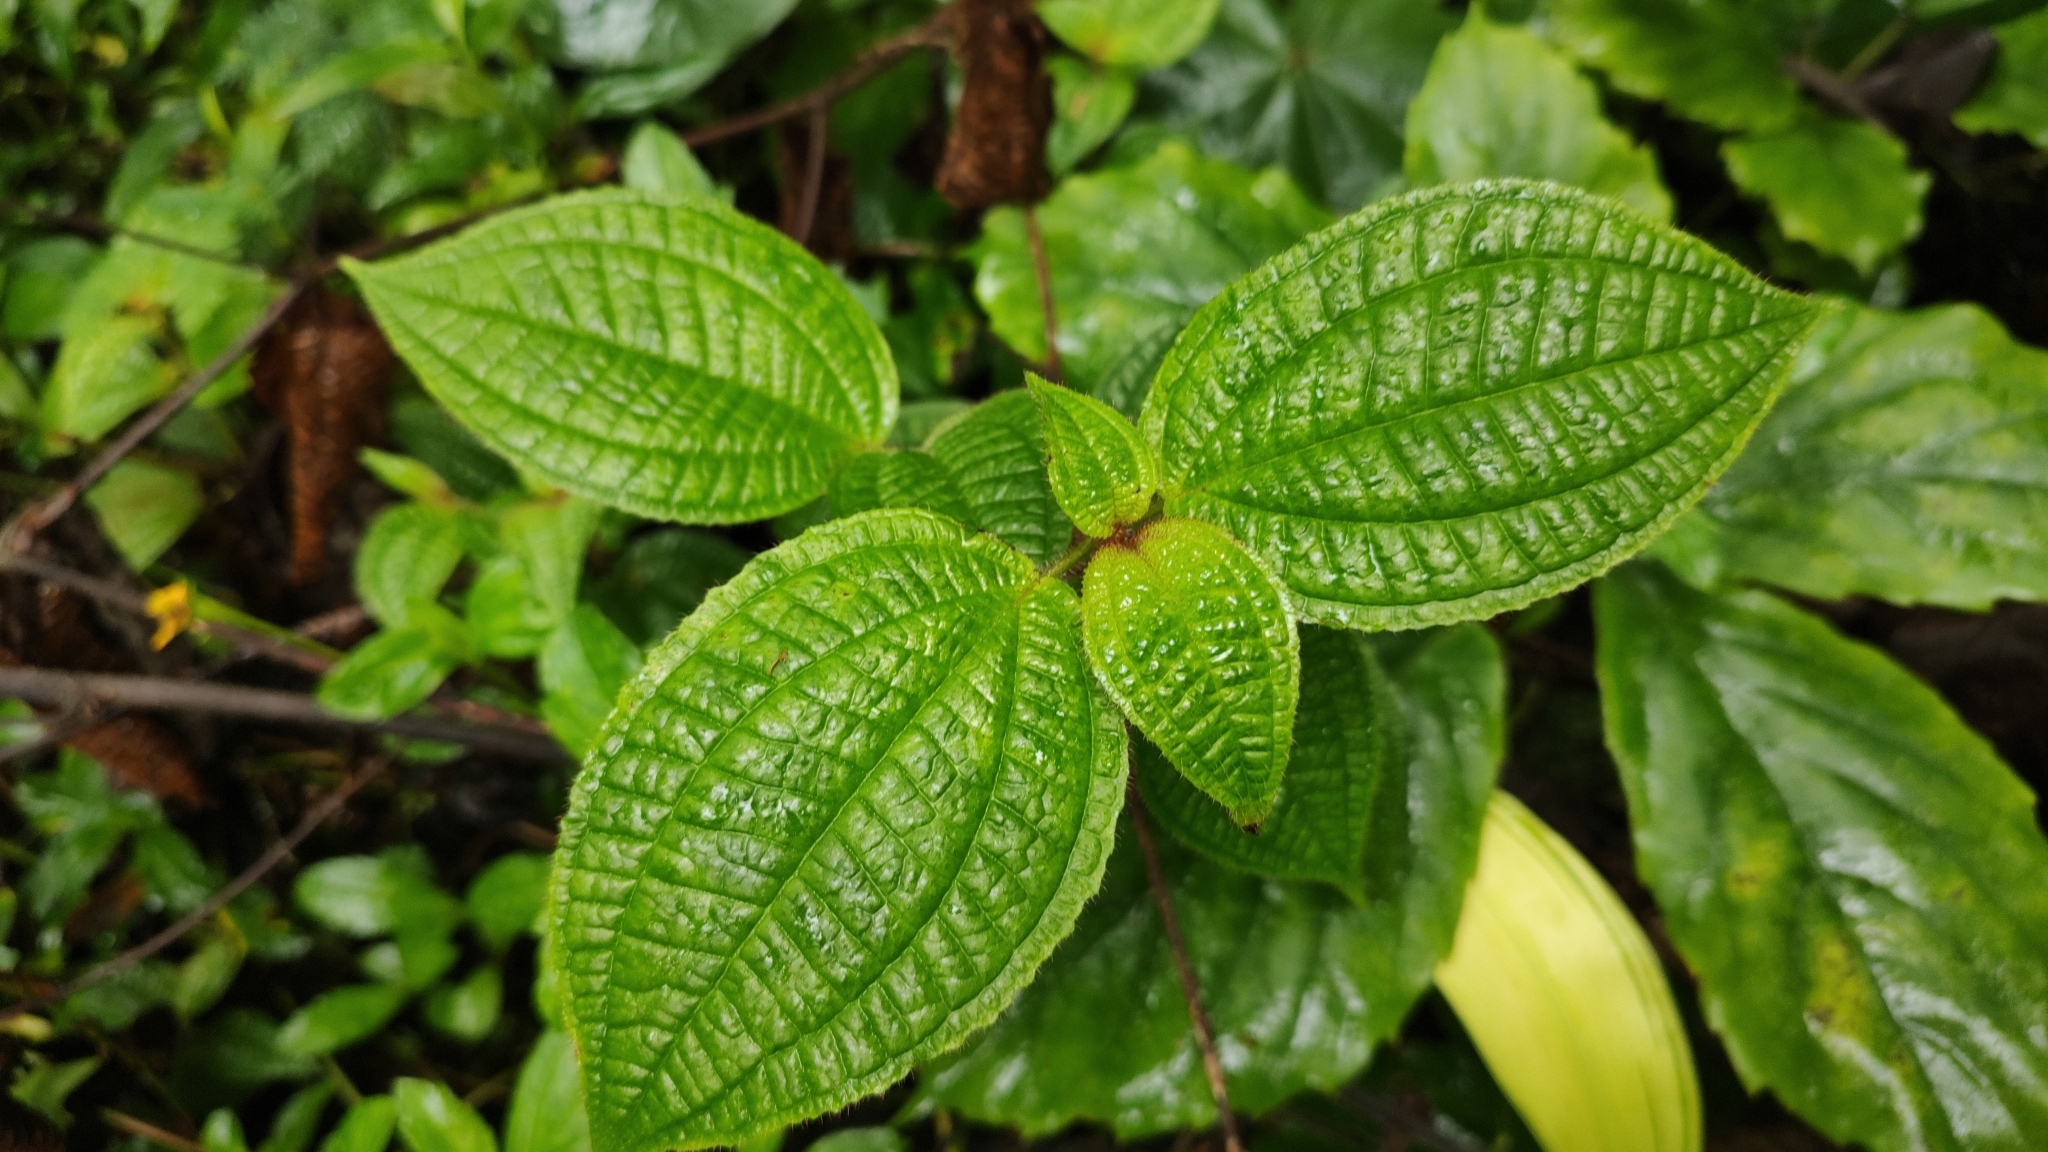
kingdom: Plantae
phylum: Tracheophyta
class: Magnoliopsida
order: Myrtales
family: Melastomataceae
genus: Miconia
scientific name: Miconia crenata
